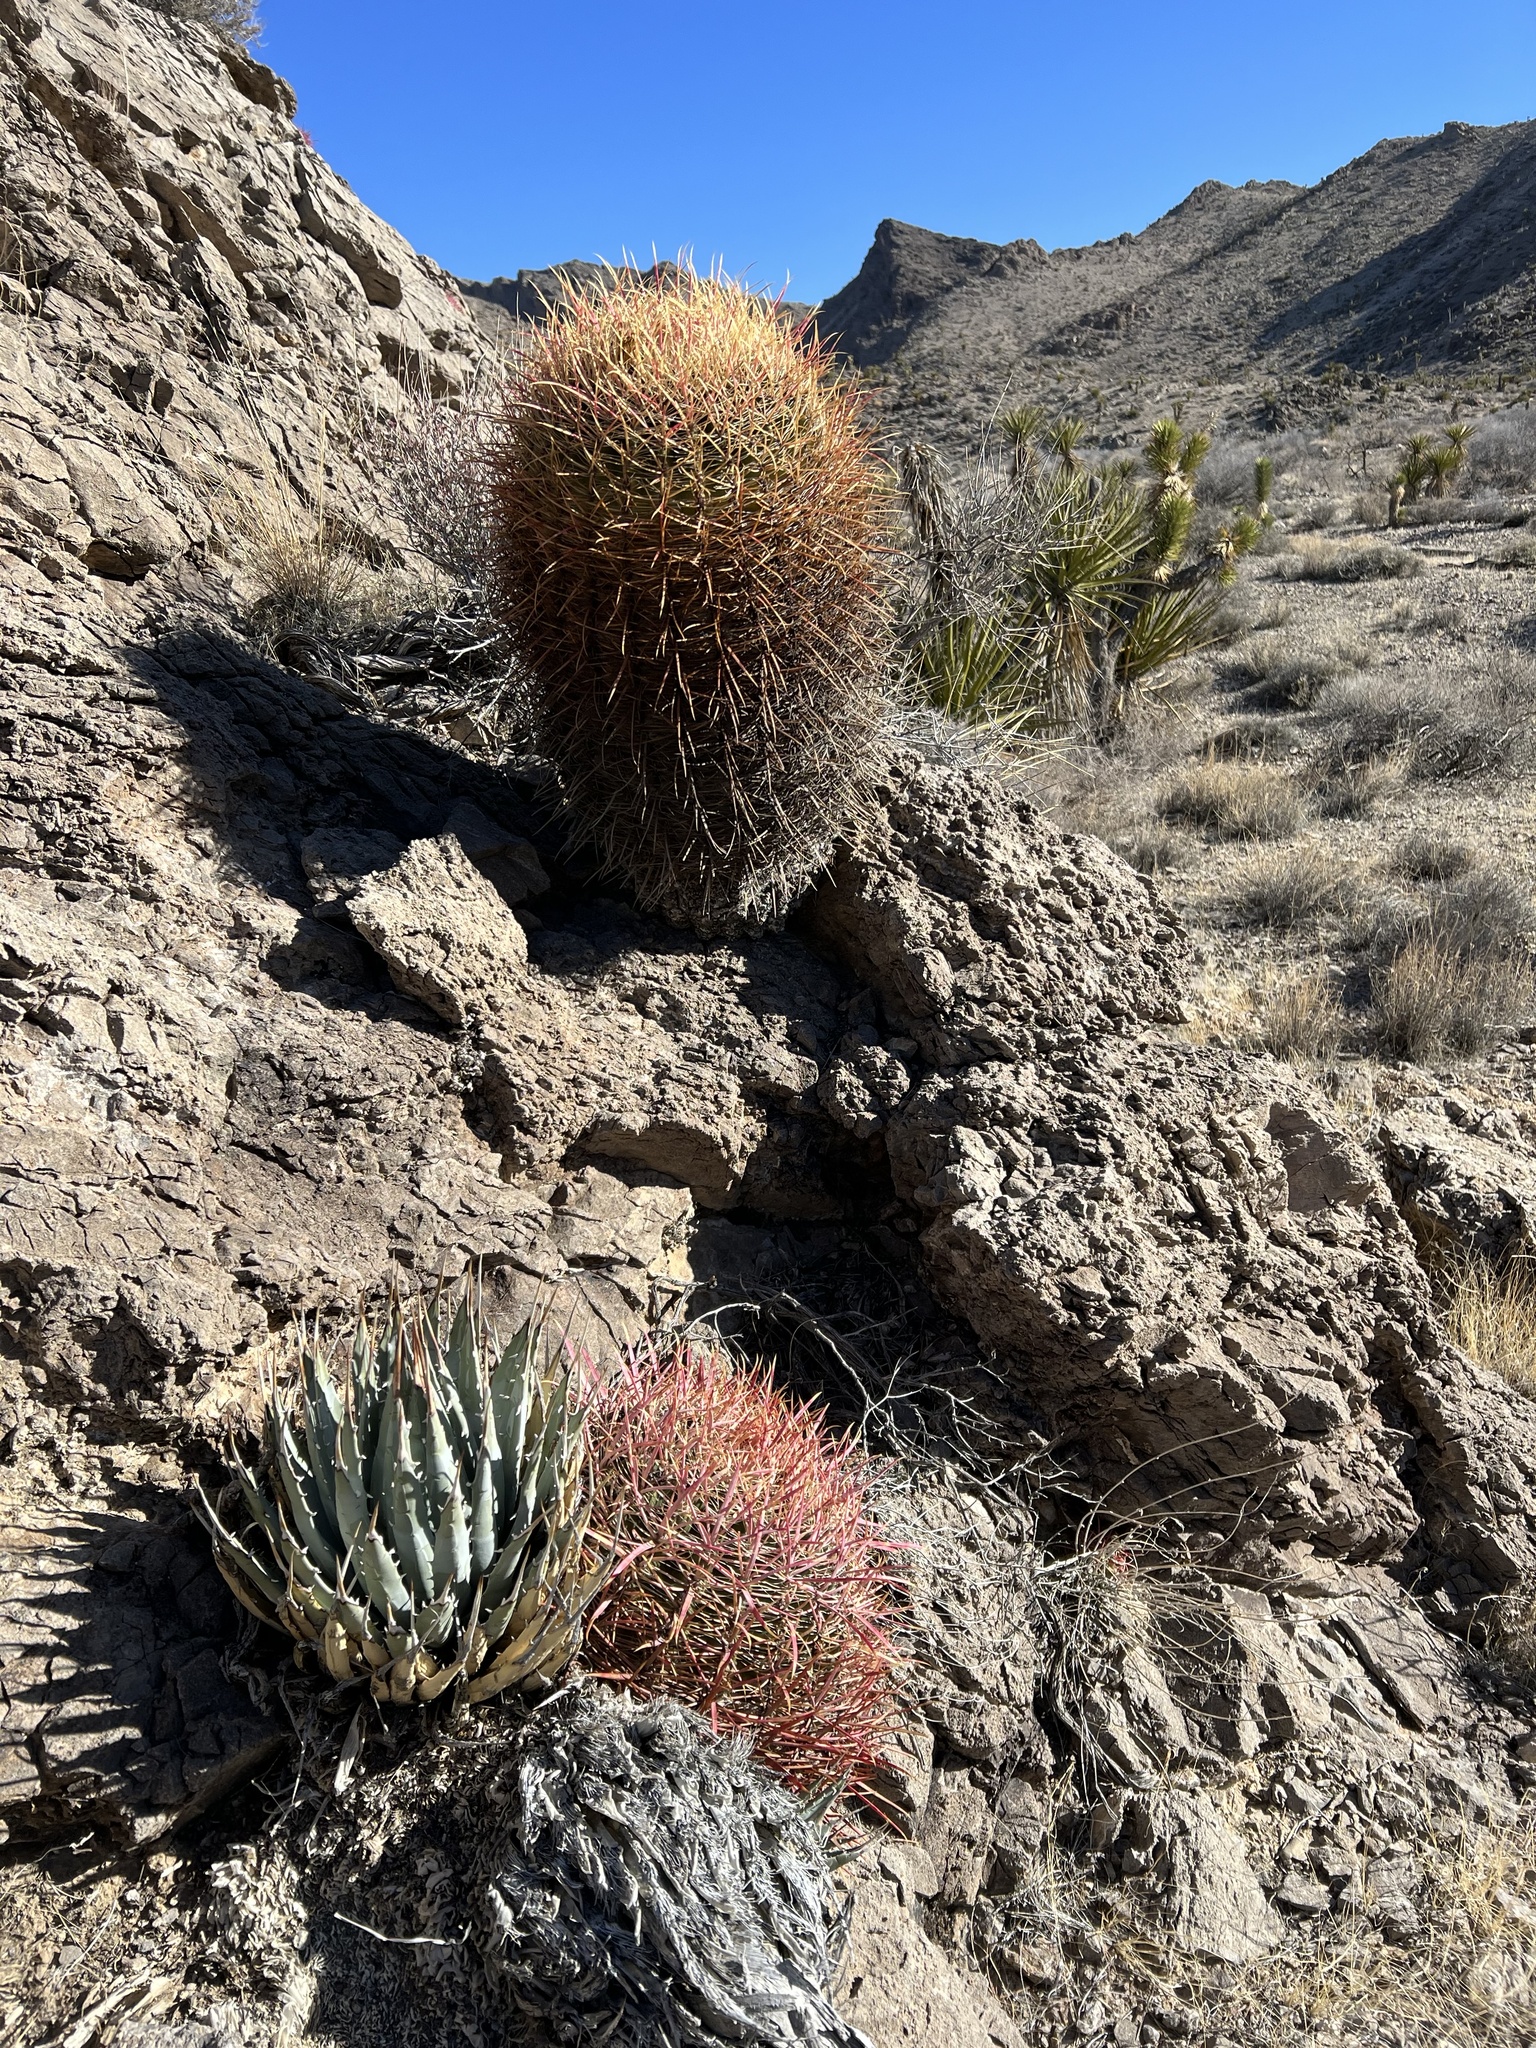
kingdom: Plantae
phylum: Tracheophyta
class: Magnoliopsida
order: Caryophyllales
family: Cactaceae
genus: Ferocactus
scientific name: Ferocactus cylindraceus
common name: California barrel cactus
